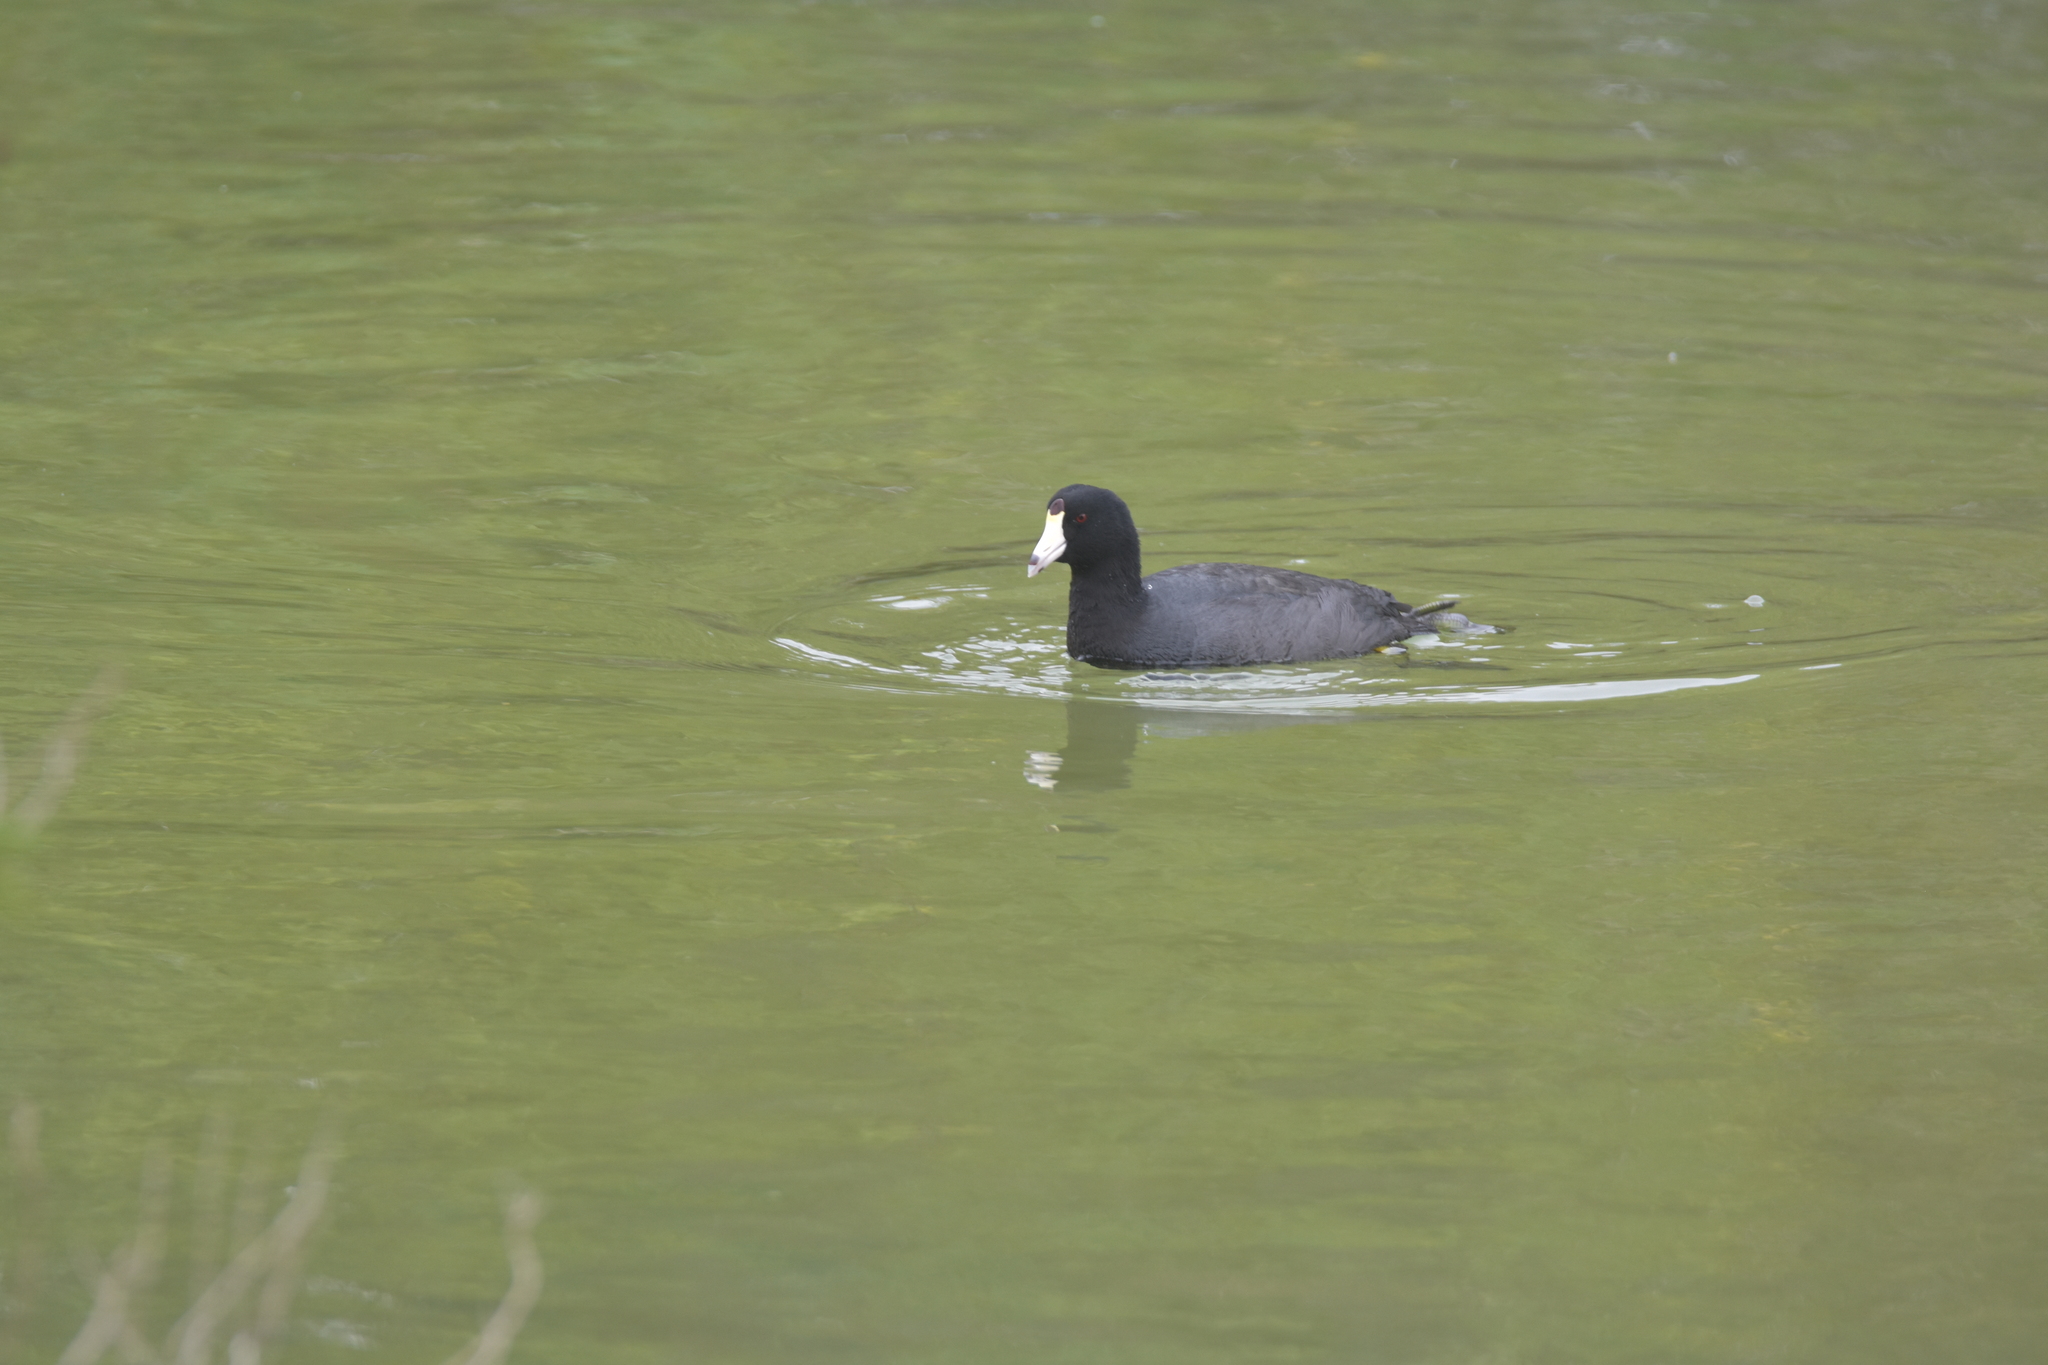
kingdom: Animalia
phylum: Chordata
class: Aves
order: Gruiformes
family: Rallidae
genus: Fulica
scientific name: Fulica americana
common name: American coot
